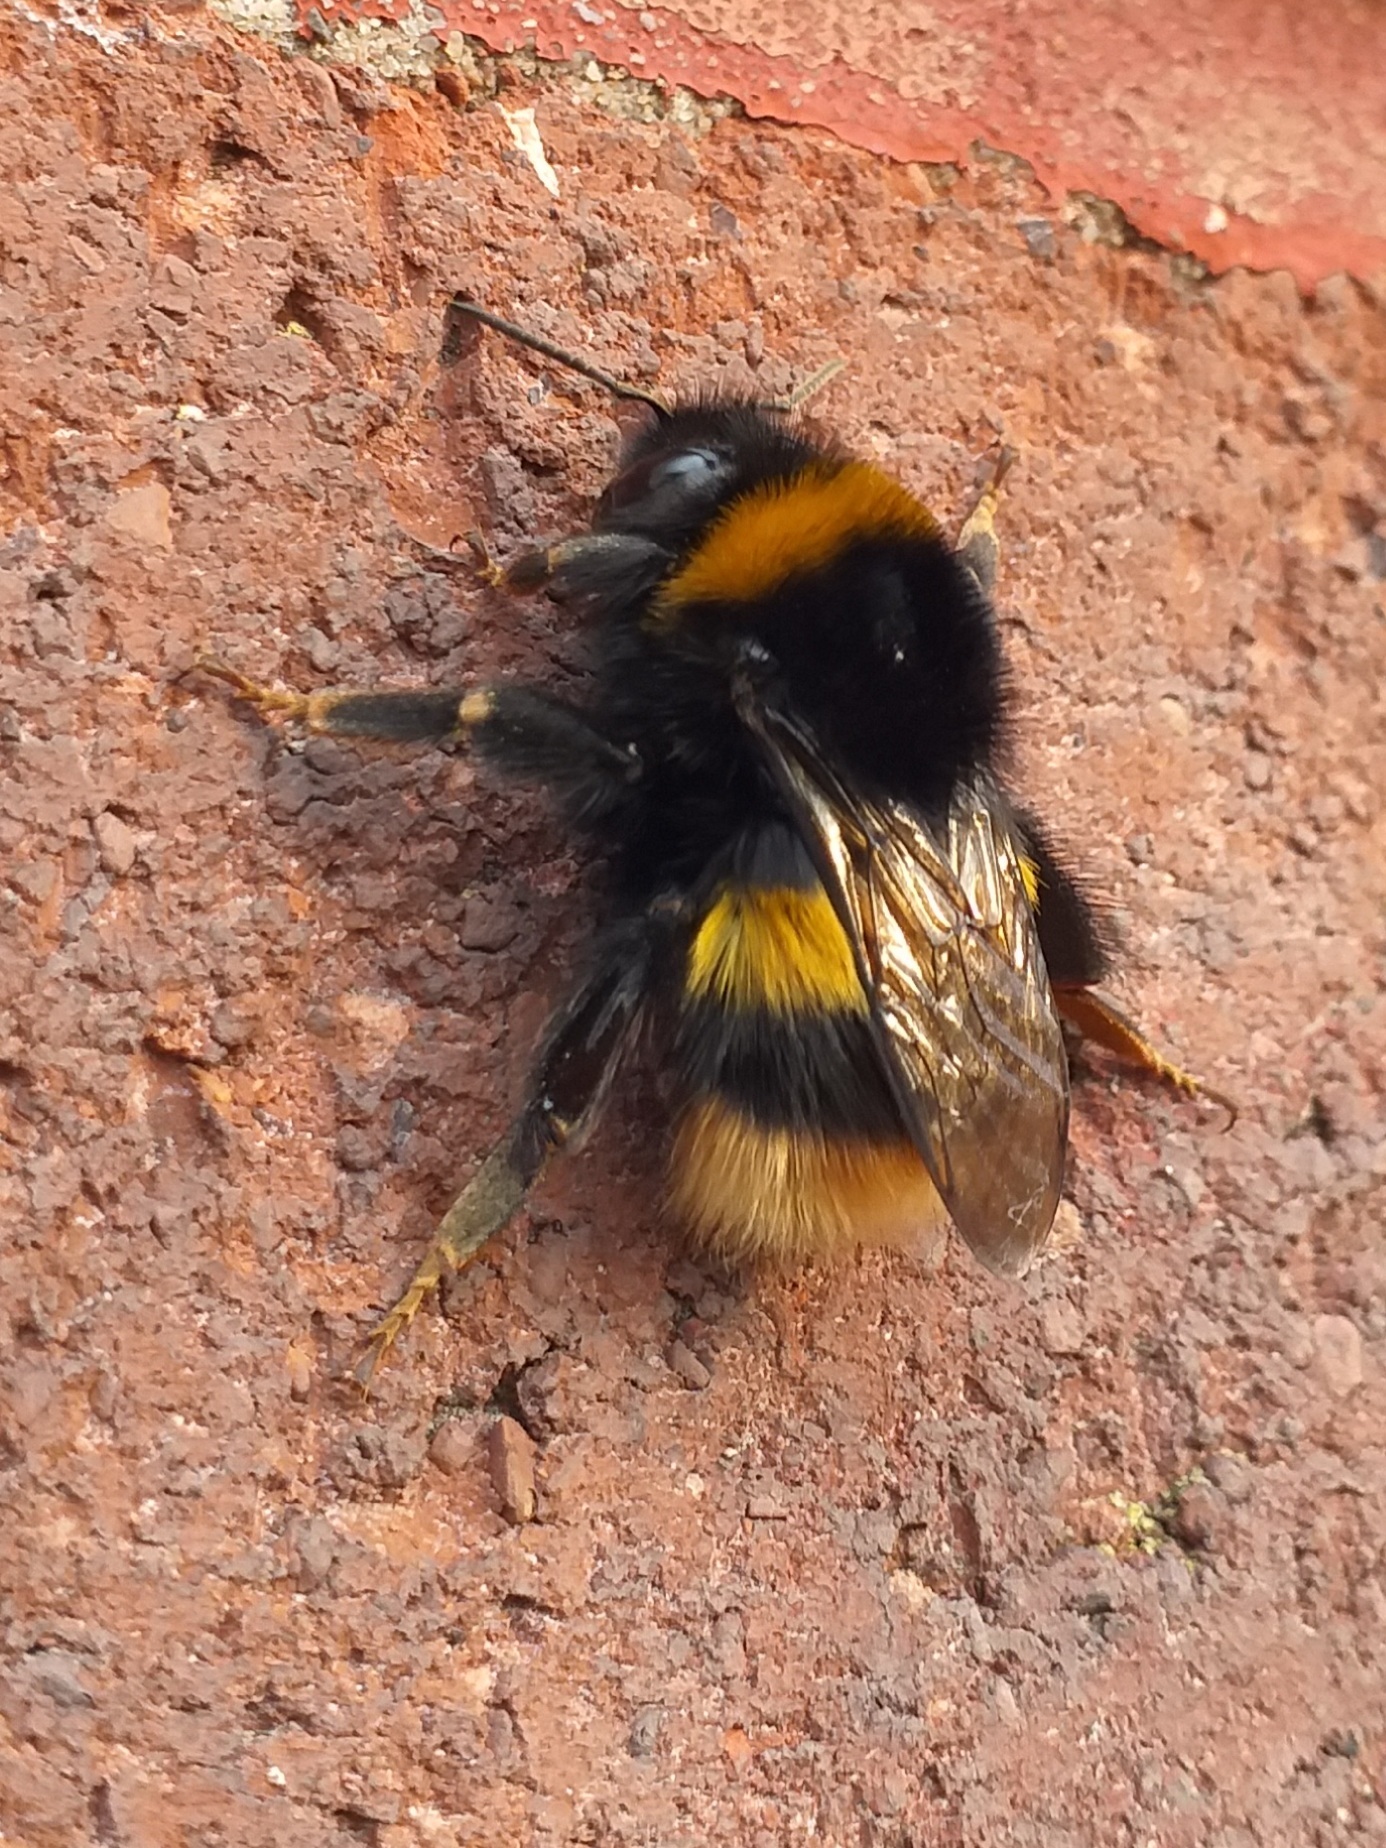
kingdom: Animalia
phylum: Arthropoda
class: Insecta
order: Hymenoptera
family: Apidae
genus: Bombus
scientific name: Bombus terrestris
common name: Buff-tailed bumblebee
